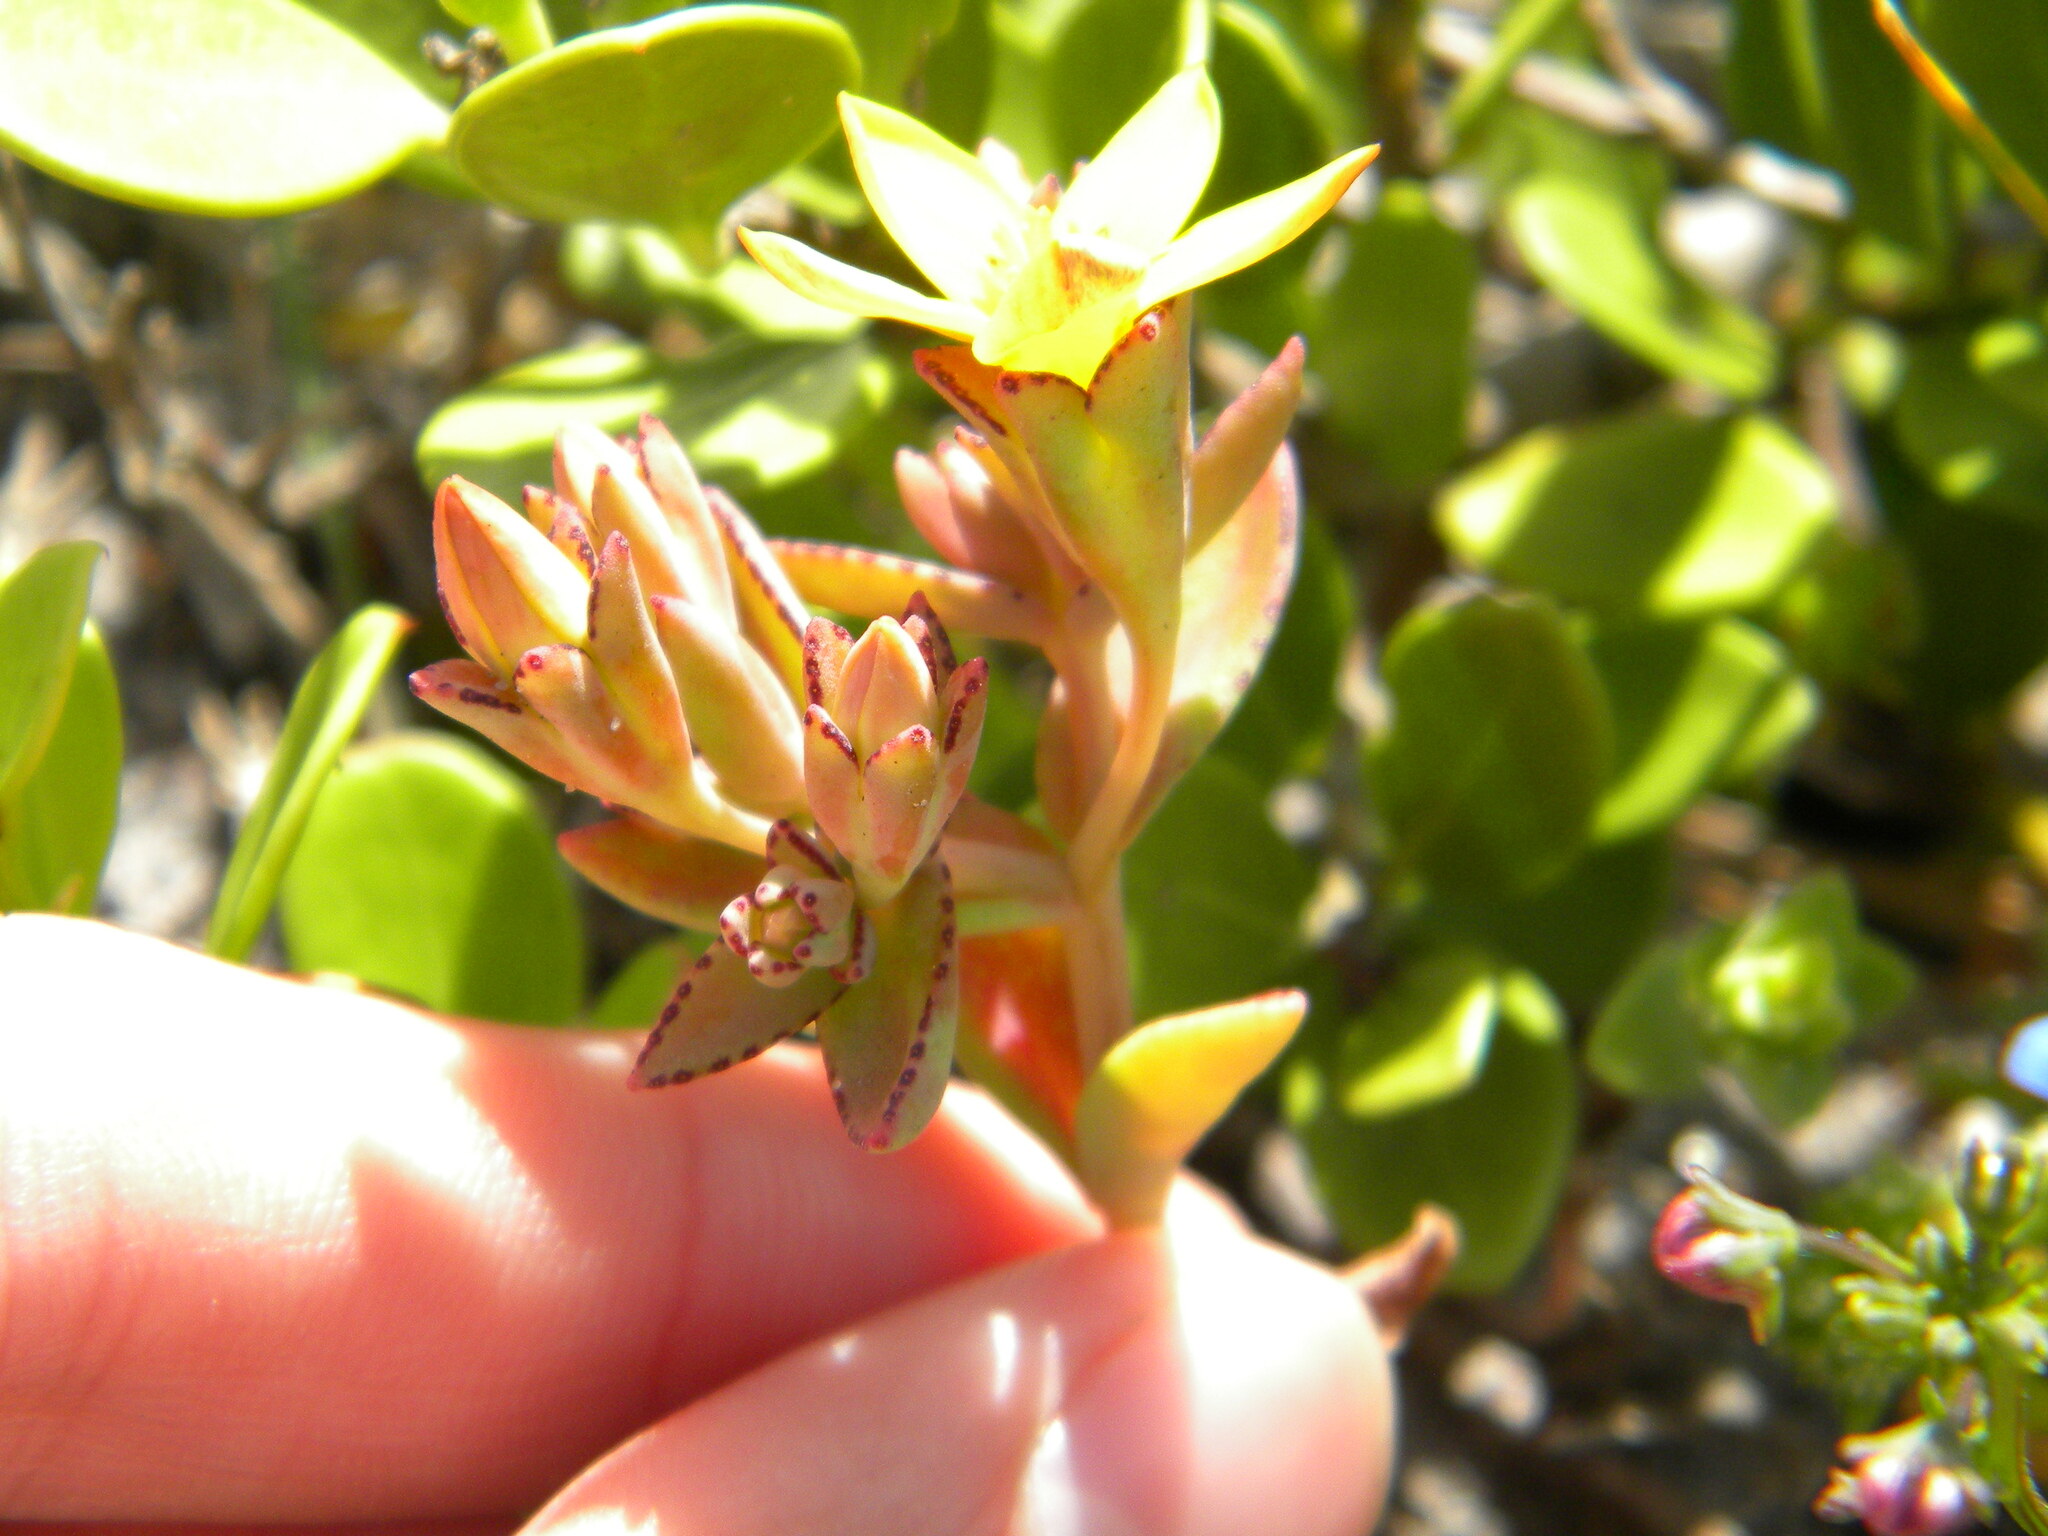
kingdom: Plantae
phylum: Tracheophyta
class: Magnoliopsida
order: Saxifragales
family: Crassulaceae
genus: Crassula
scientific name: Crassula dichotoma
